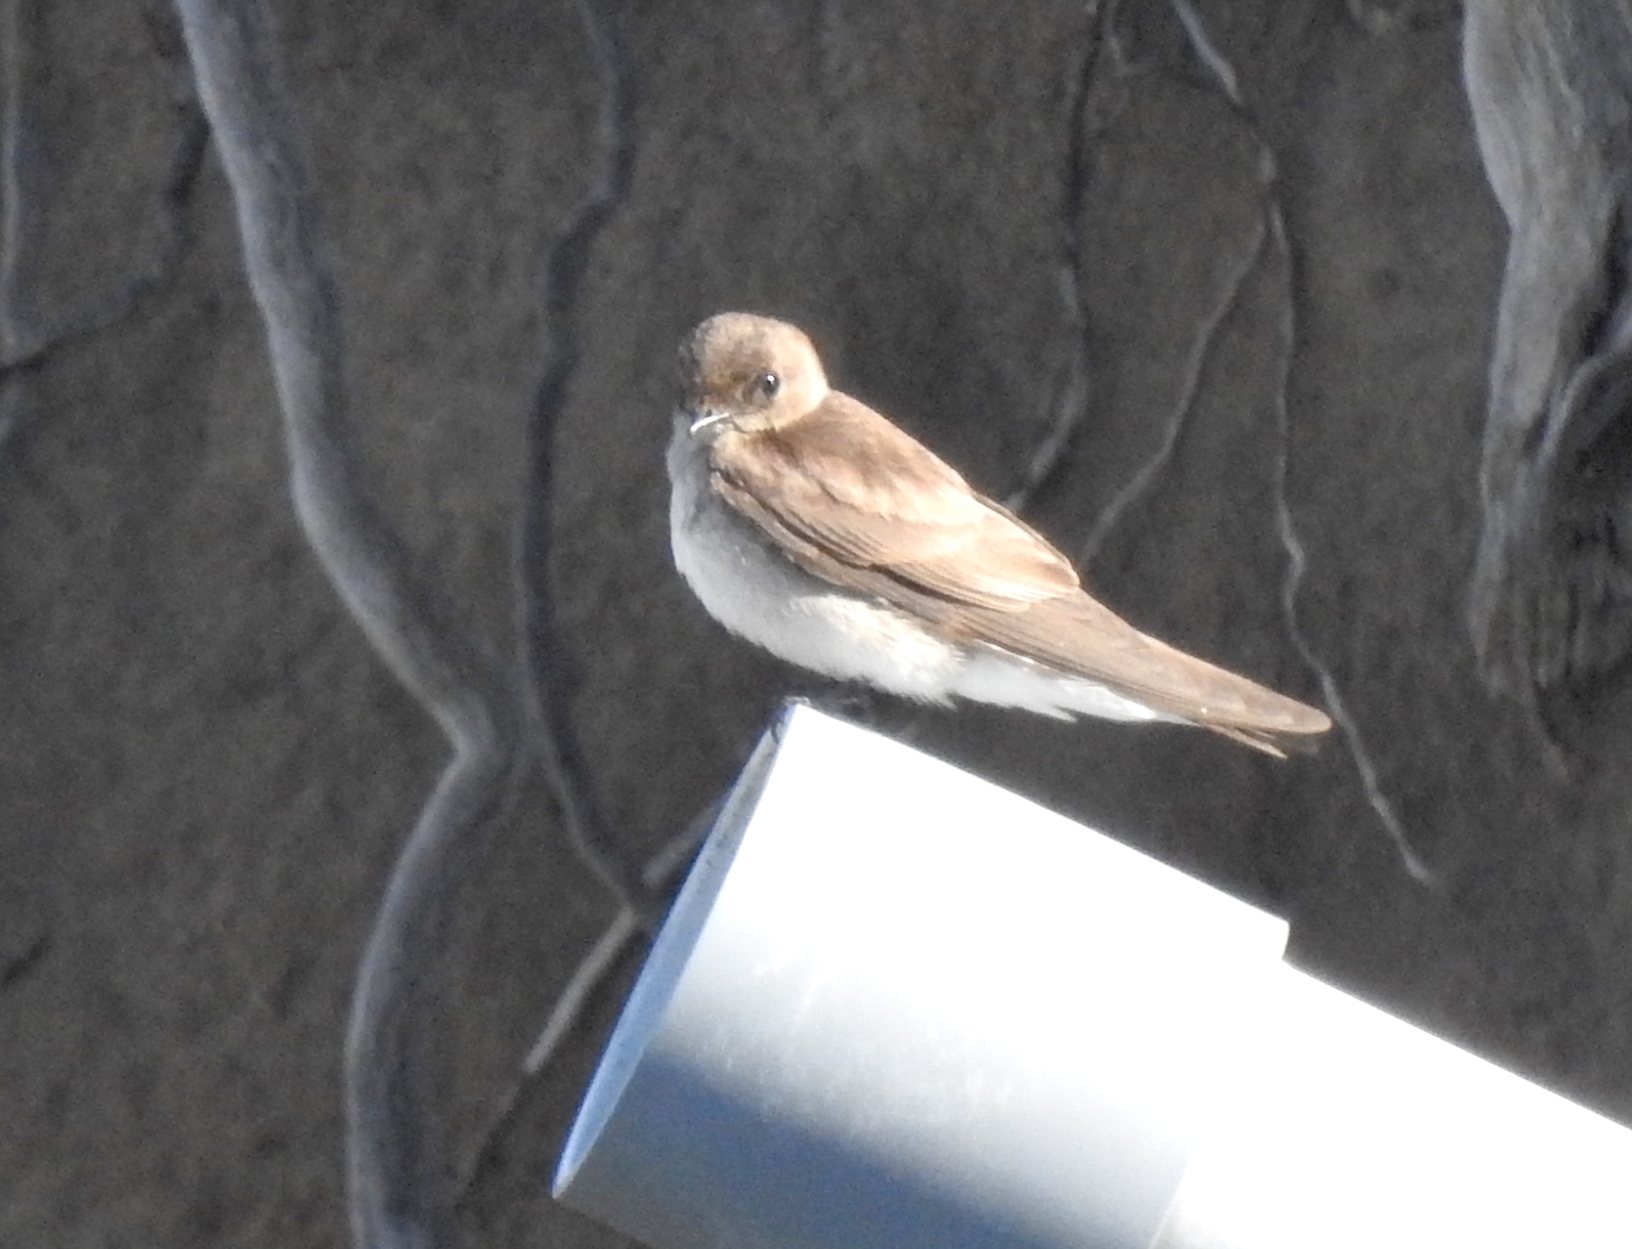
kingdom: Animalia
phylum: Chordata
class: Aves
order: Passeriformes
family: Hirundinidae
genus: Stelgidopteryx
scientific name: Stelgidopteryx serripennis
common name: Northern rough-winged swallow
